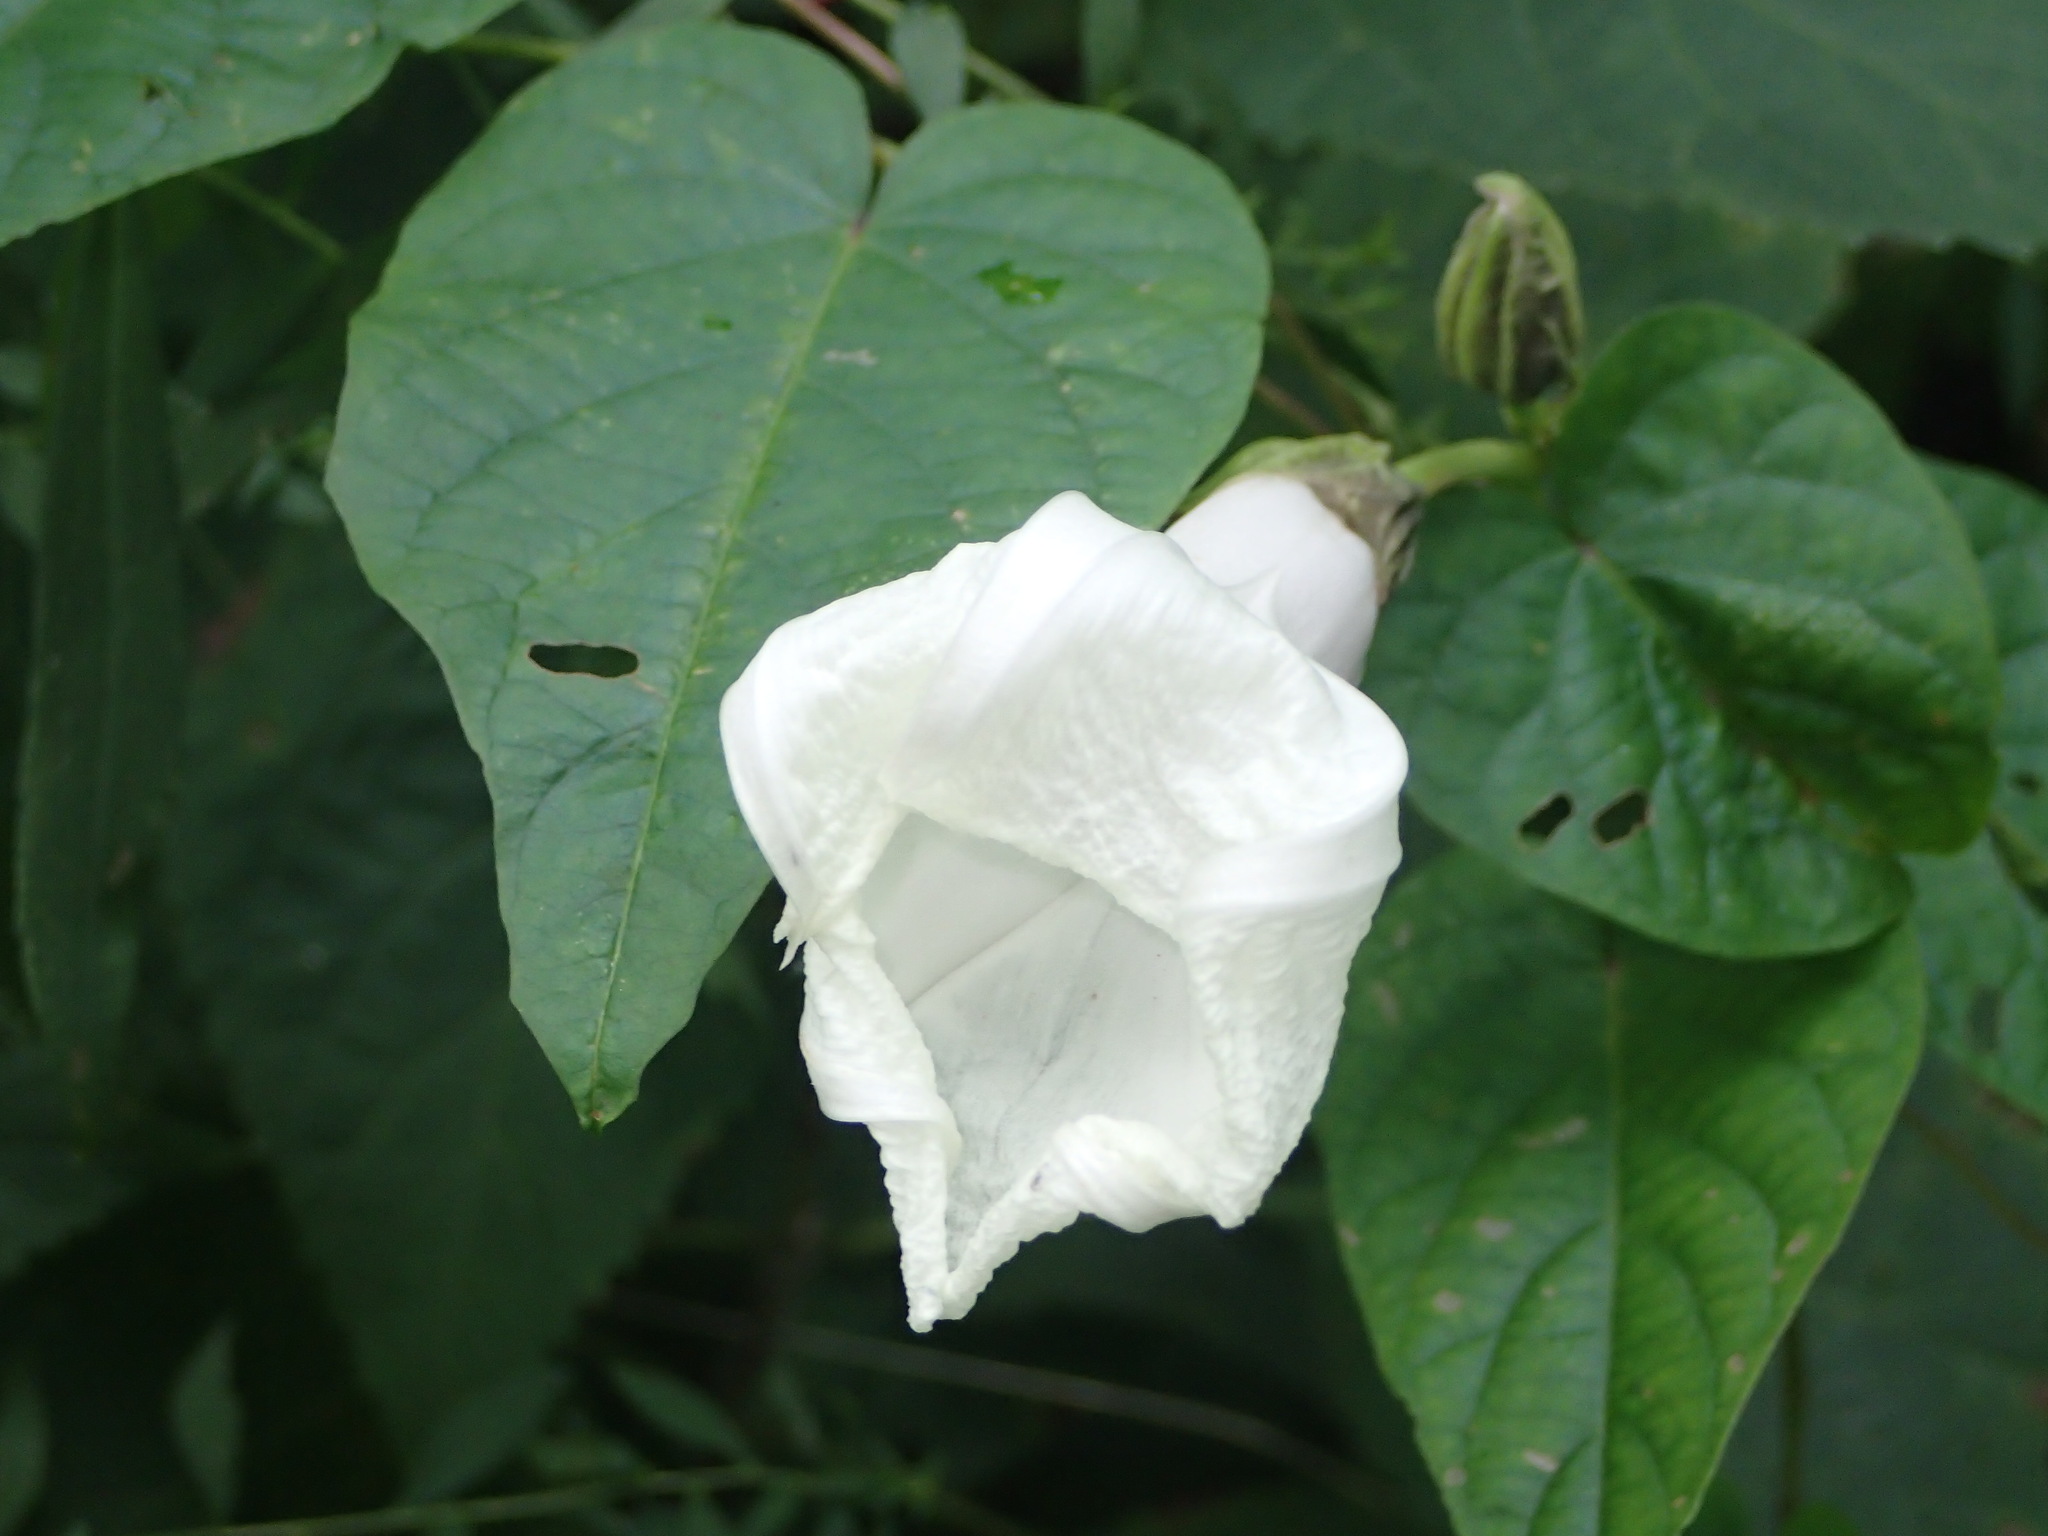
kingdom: Plantae
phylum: Tracheophyta
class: Magnoliopsida
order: Solanales
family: Convolvulaceae
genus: Ipomoea
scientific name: Ipomoea pandurata
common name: Man-of-the-earth
